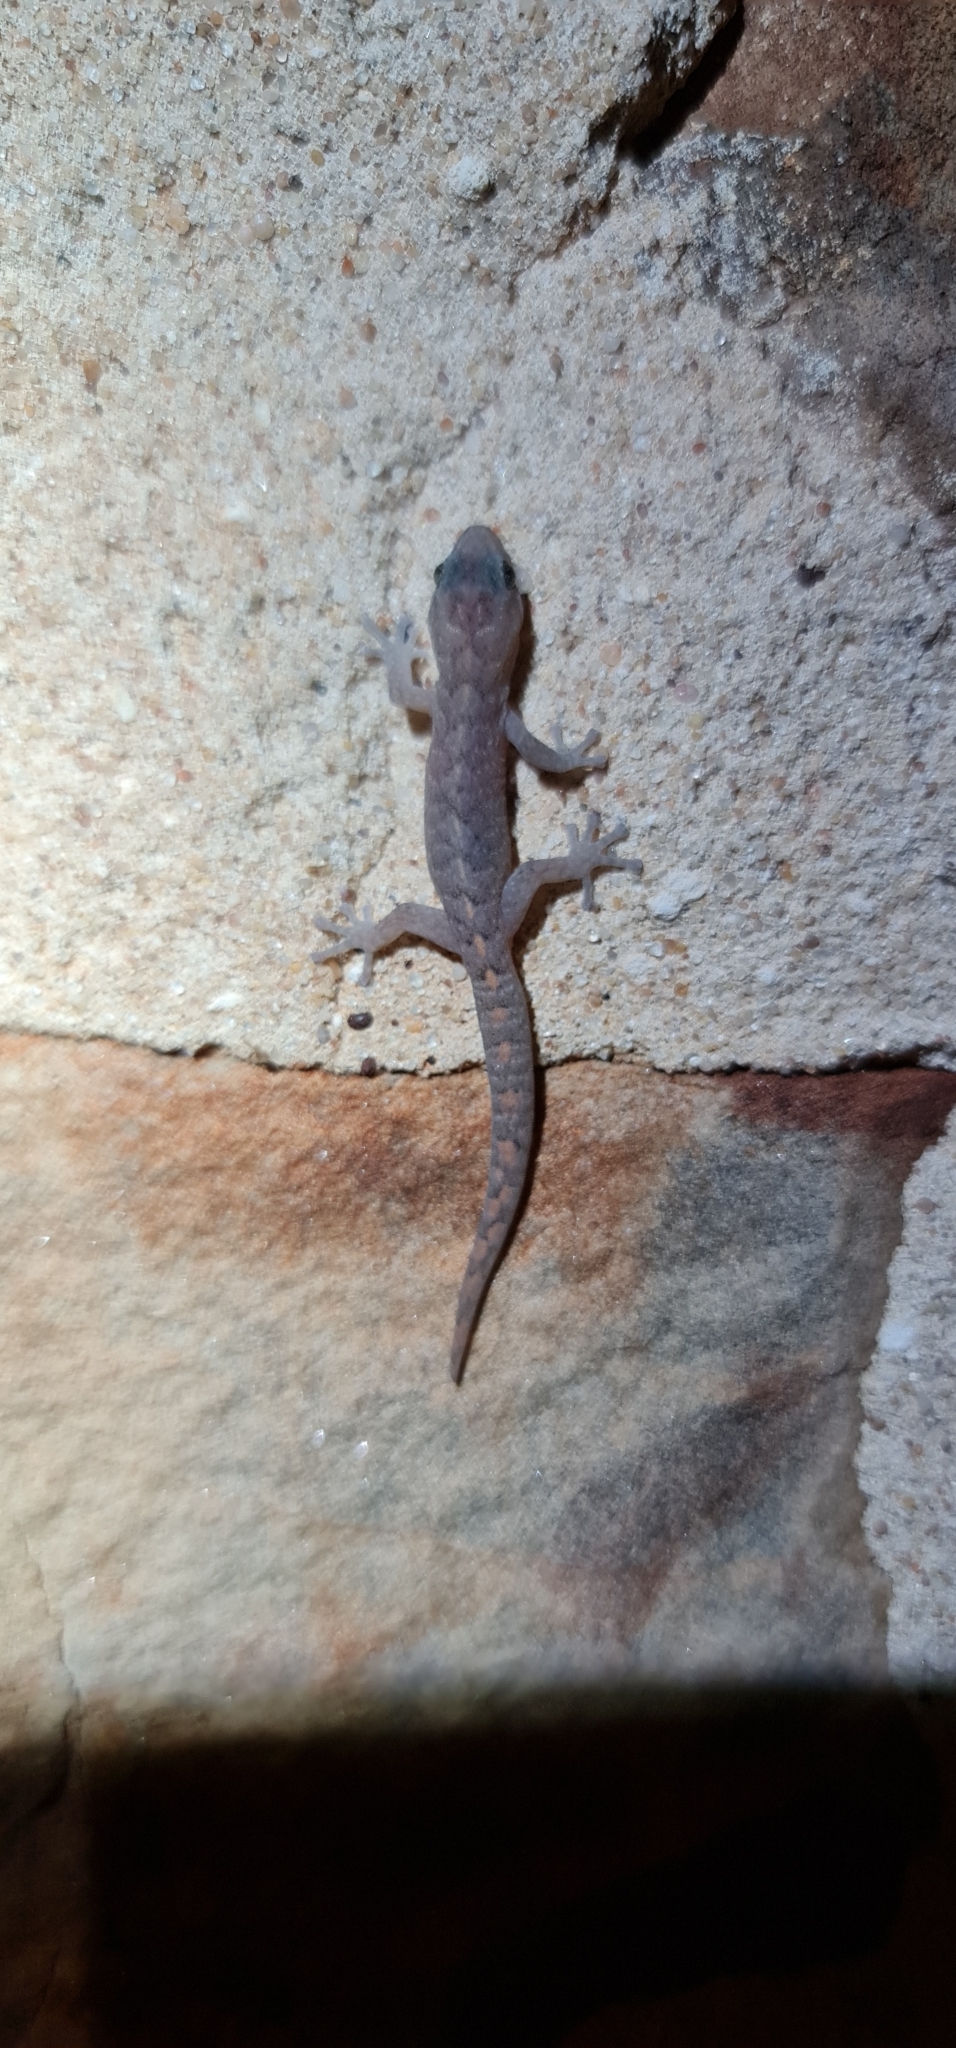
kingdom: Animalia
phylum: Chordata
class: Squamata
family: Gekkonidae
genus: Christinus
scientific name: Christinus marmoratus
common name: Marbled gecko
